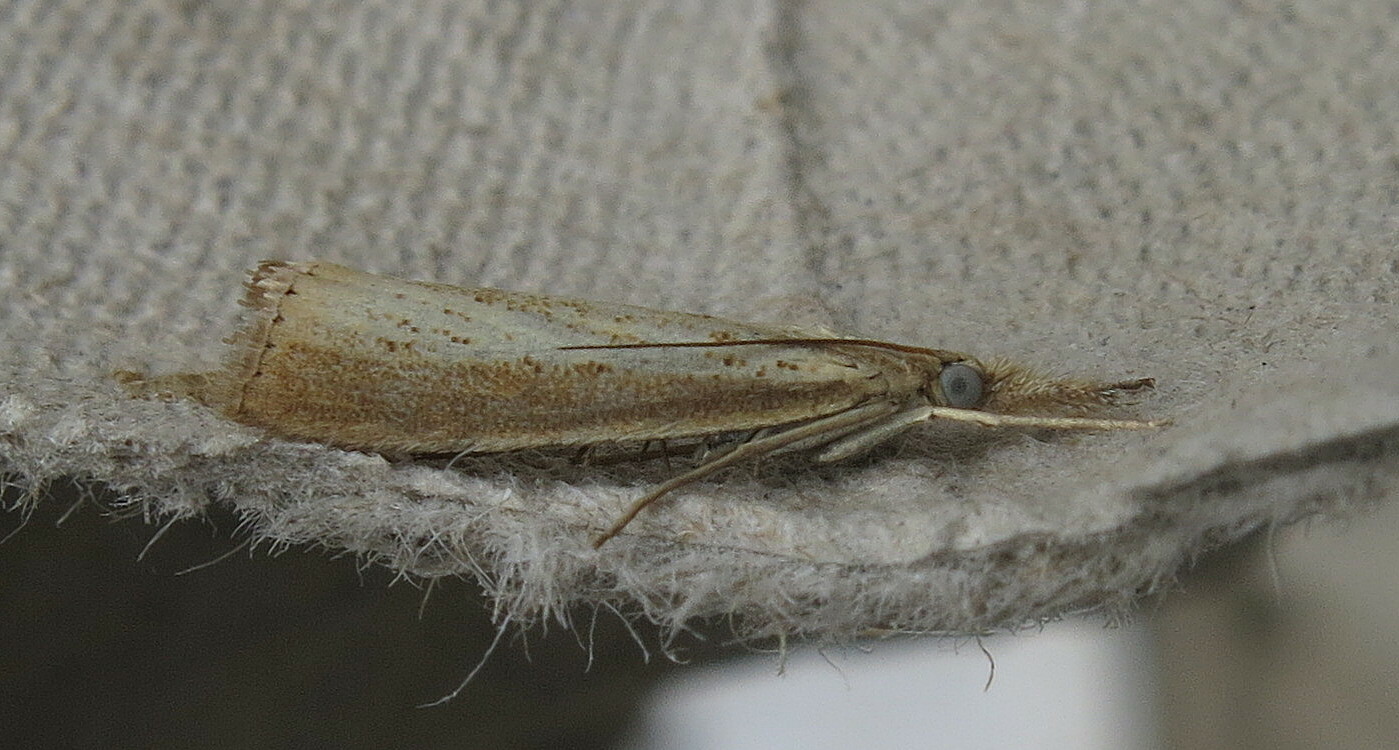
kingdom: Animalia
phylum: Arthropoda
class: Insecta
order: Lepidoptera
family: Crambidae
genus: Agriphila
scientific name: Agriphila straminella
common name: Straw grass-veneer
